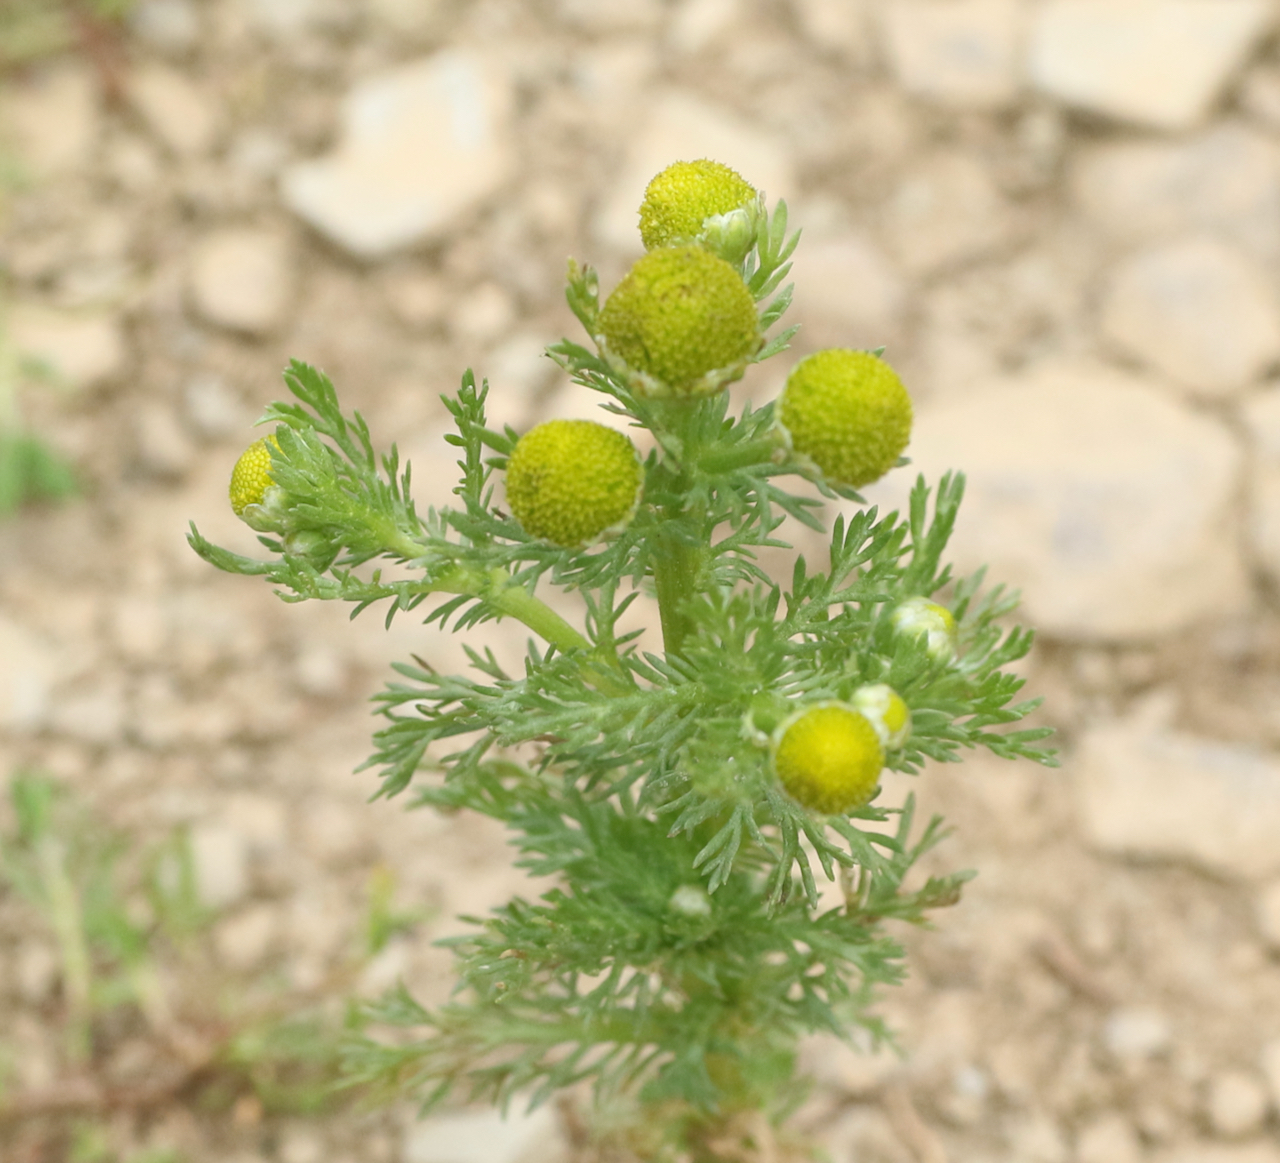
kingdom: Plantae
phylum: Tracheophyta
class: Magnoliopsida
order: Asterales
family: Asteraceae
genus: Matricaria
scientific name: Matricaria discoidea
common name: Disc mayweed
